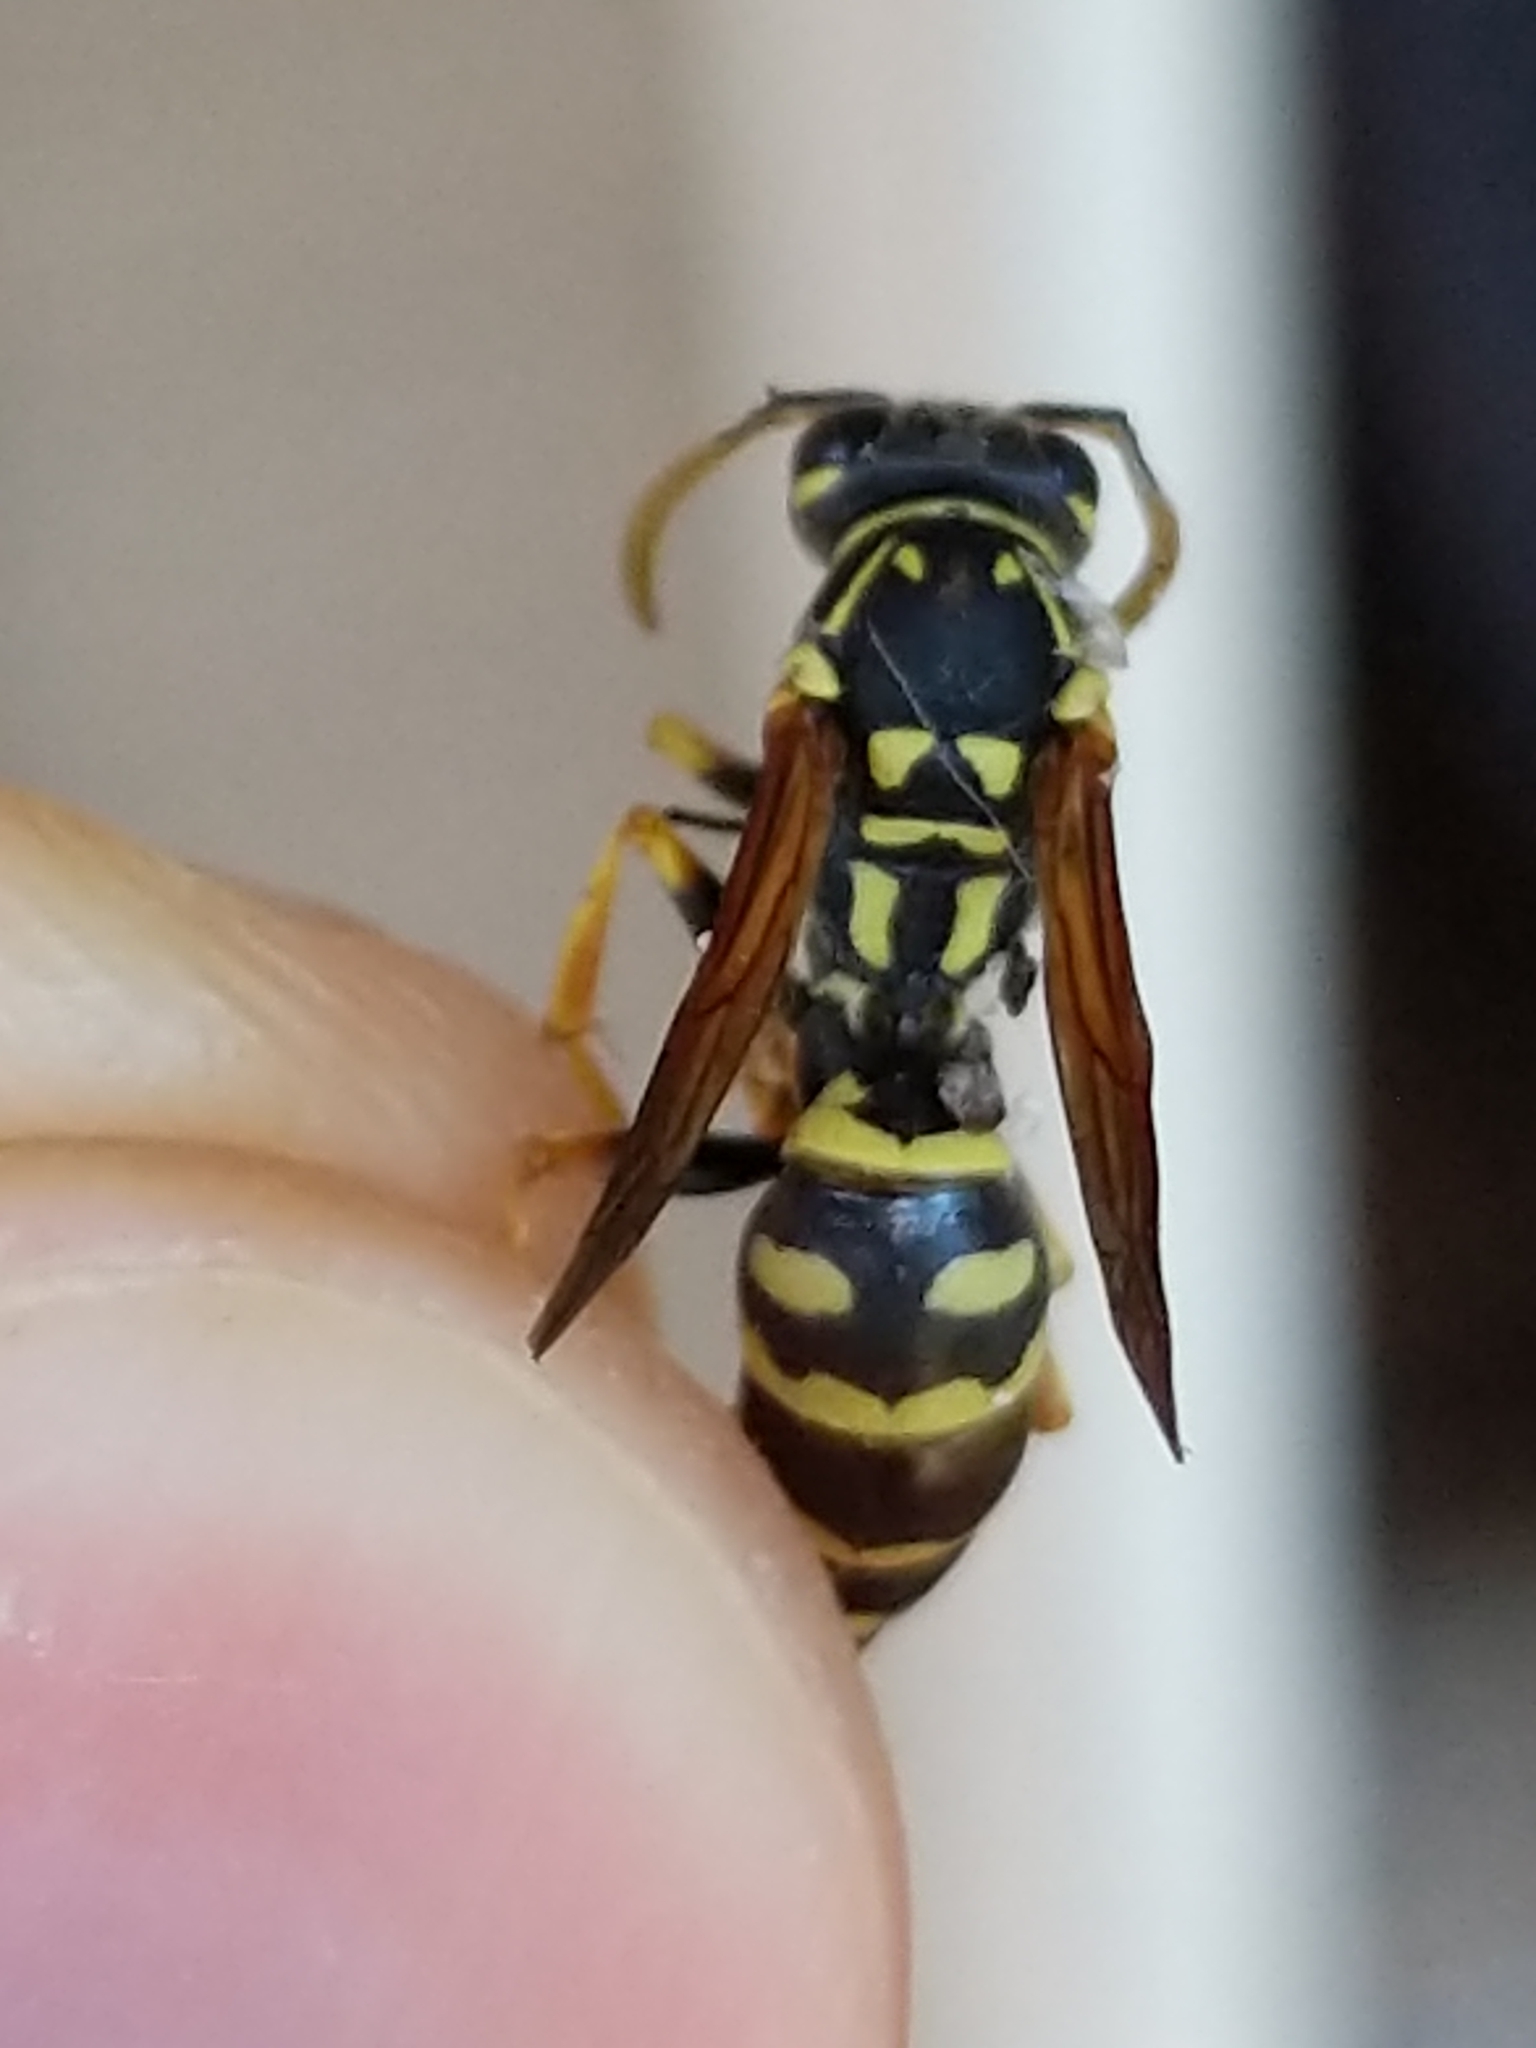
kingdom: Animalia
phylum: Arthropoda
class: Insecta
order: Hymenoptera
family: Eumenidae
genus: Polistes
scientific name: Polistes dominula
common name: Paper wasp
